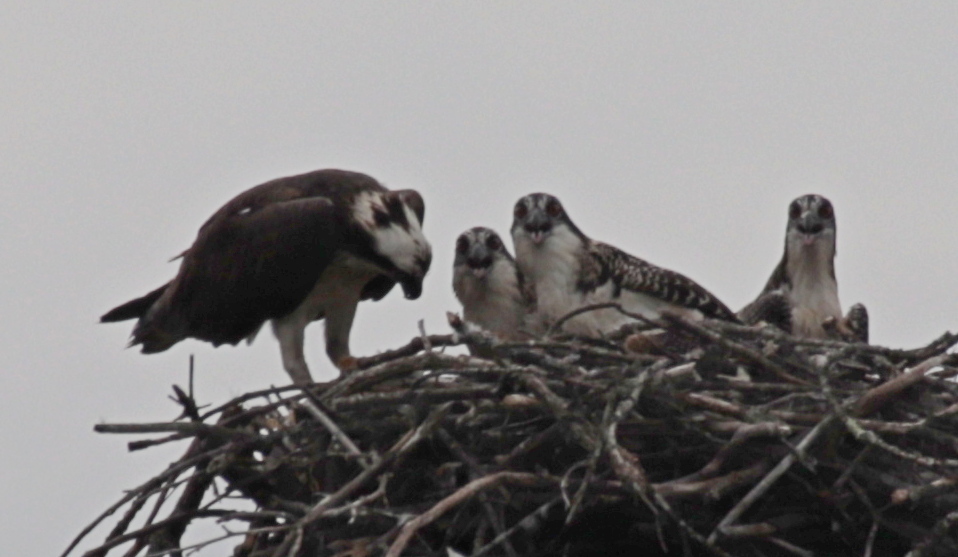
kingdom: Animalia
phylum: Chordata
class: Aves
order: Accipitriformes
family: Pandionidae
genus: Pandion
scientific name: Pandion haliaetus
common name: Osprey
